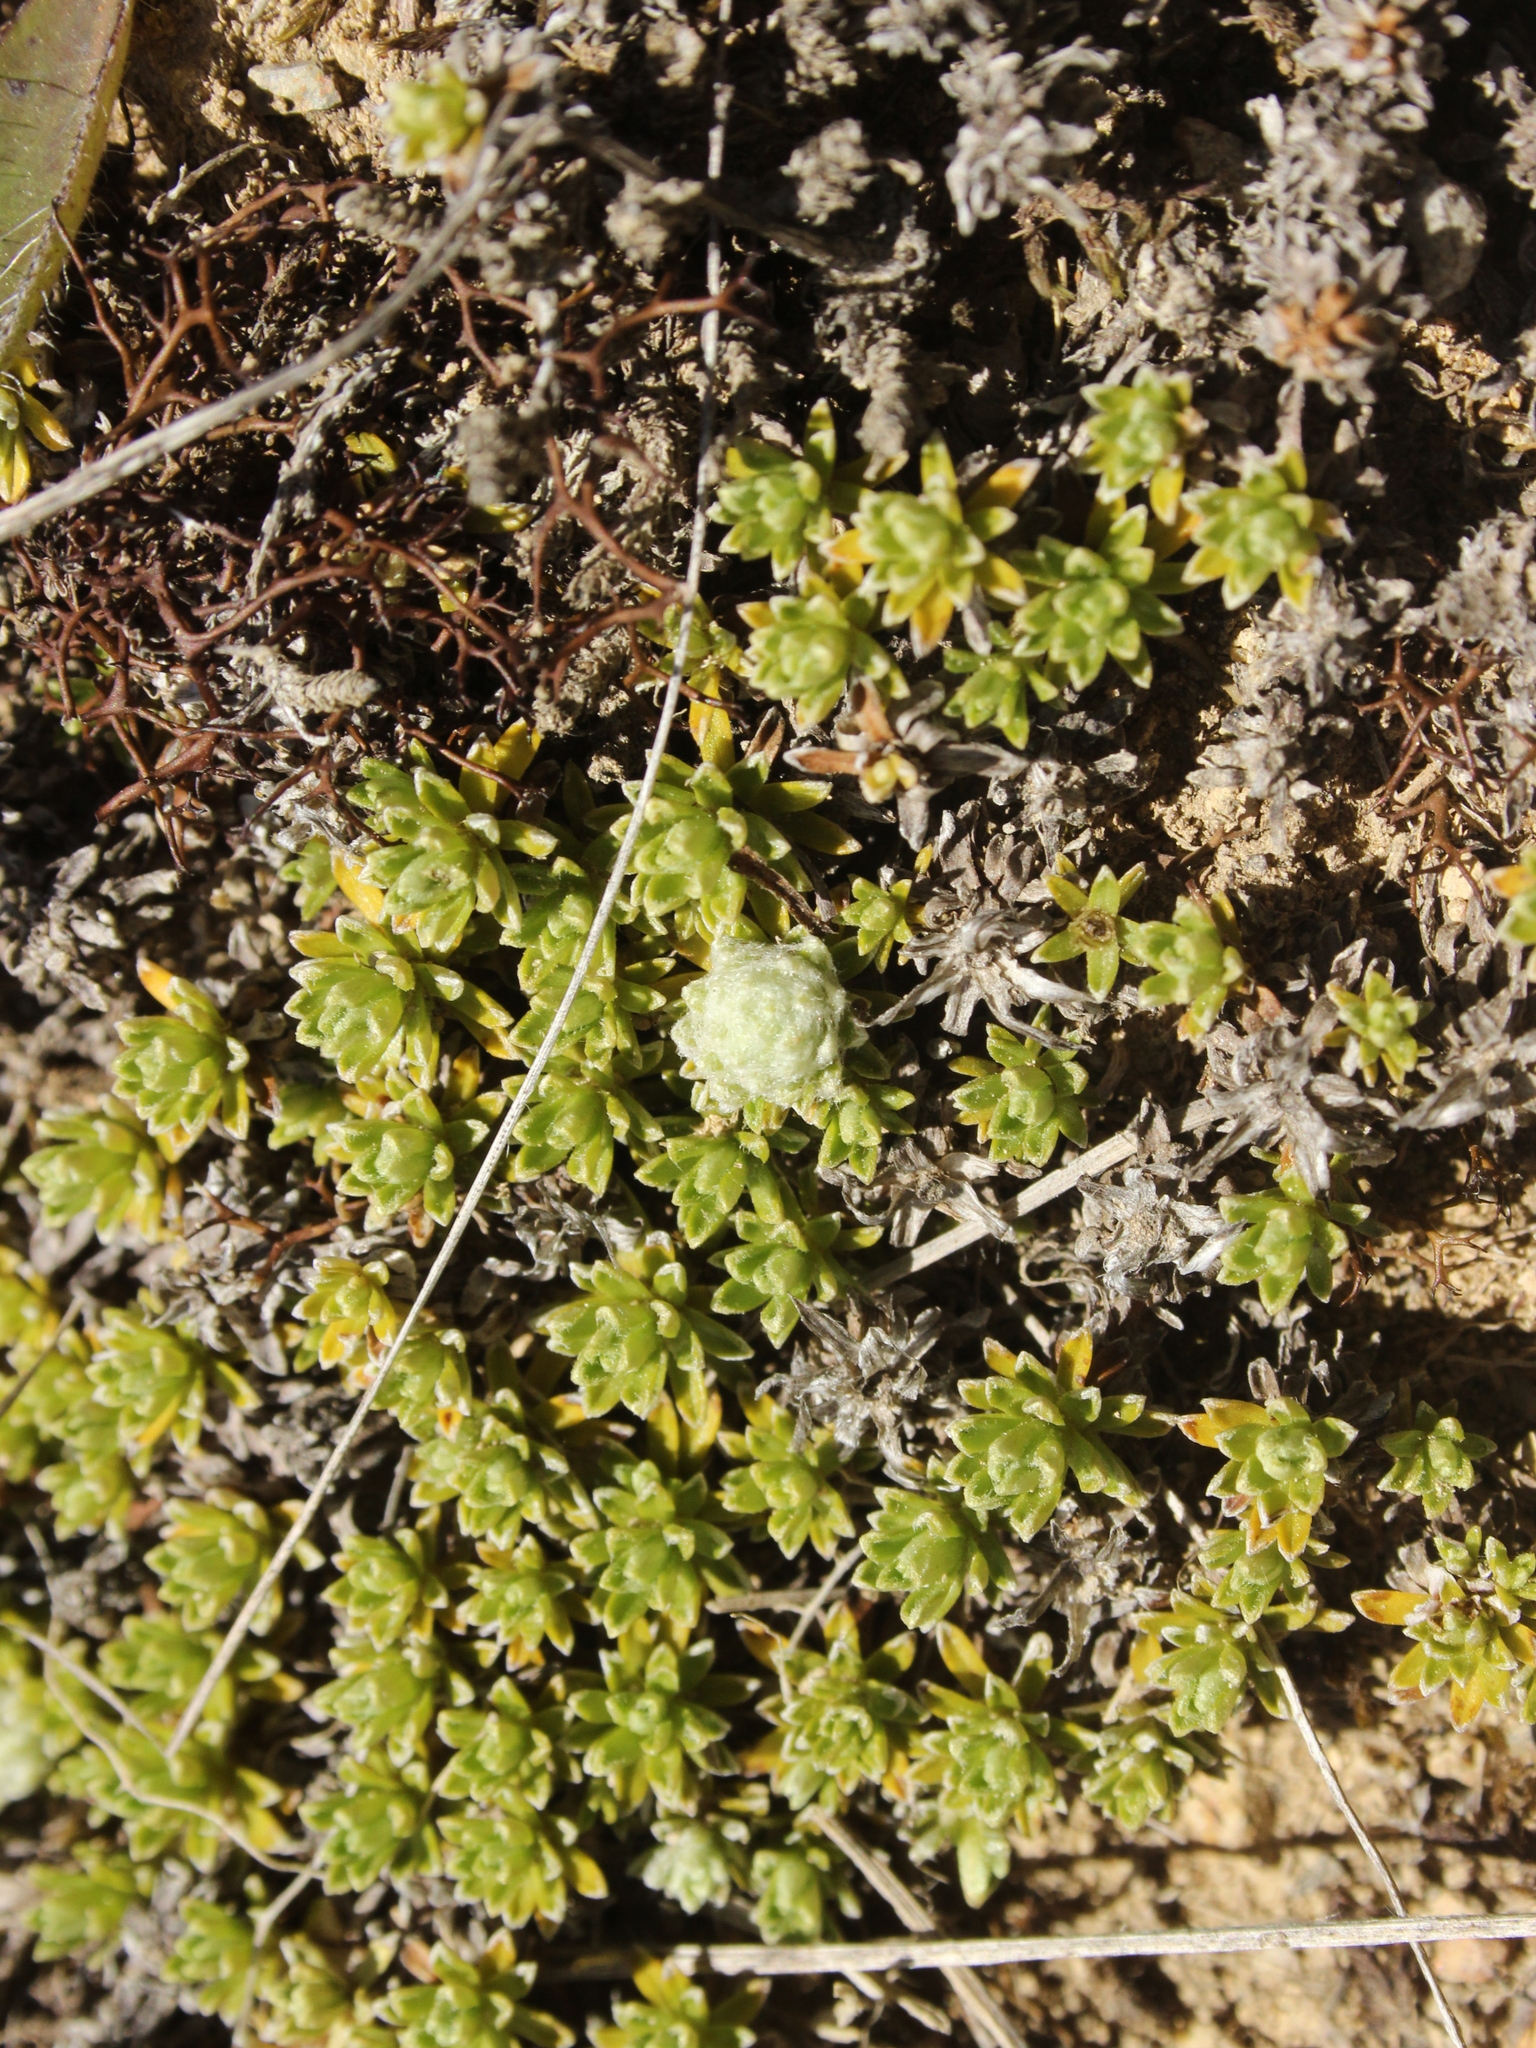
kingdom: Plantae
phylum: Tracheophyta
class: Magnoliopsida
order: Asterales
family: Asteraceae
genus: Raoulia
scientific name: Raoulia subsericea
